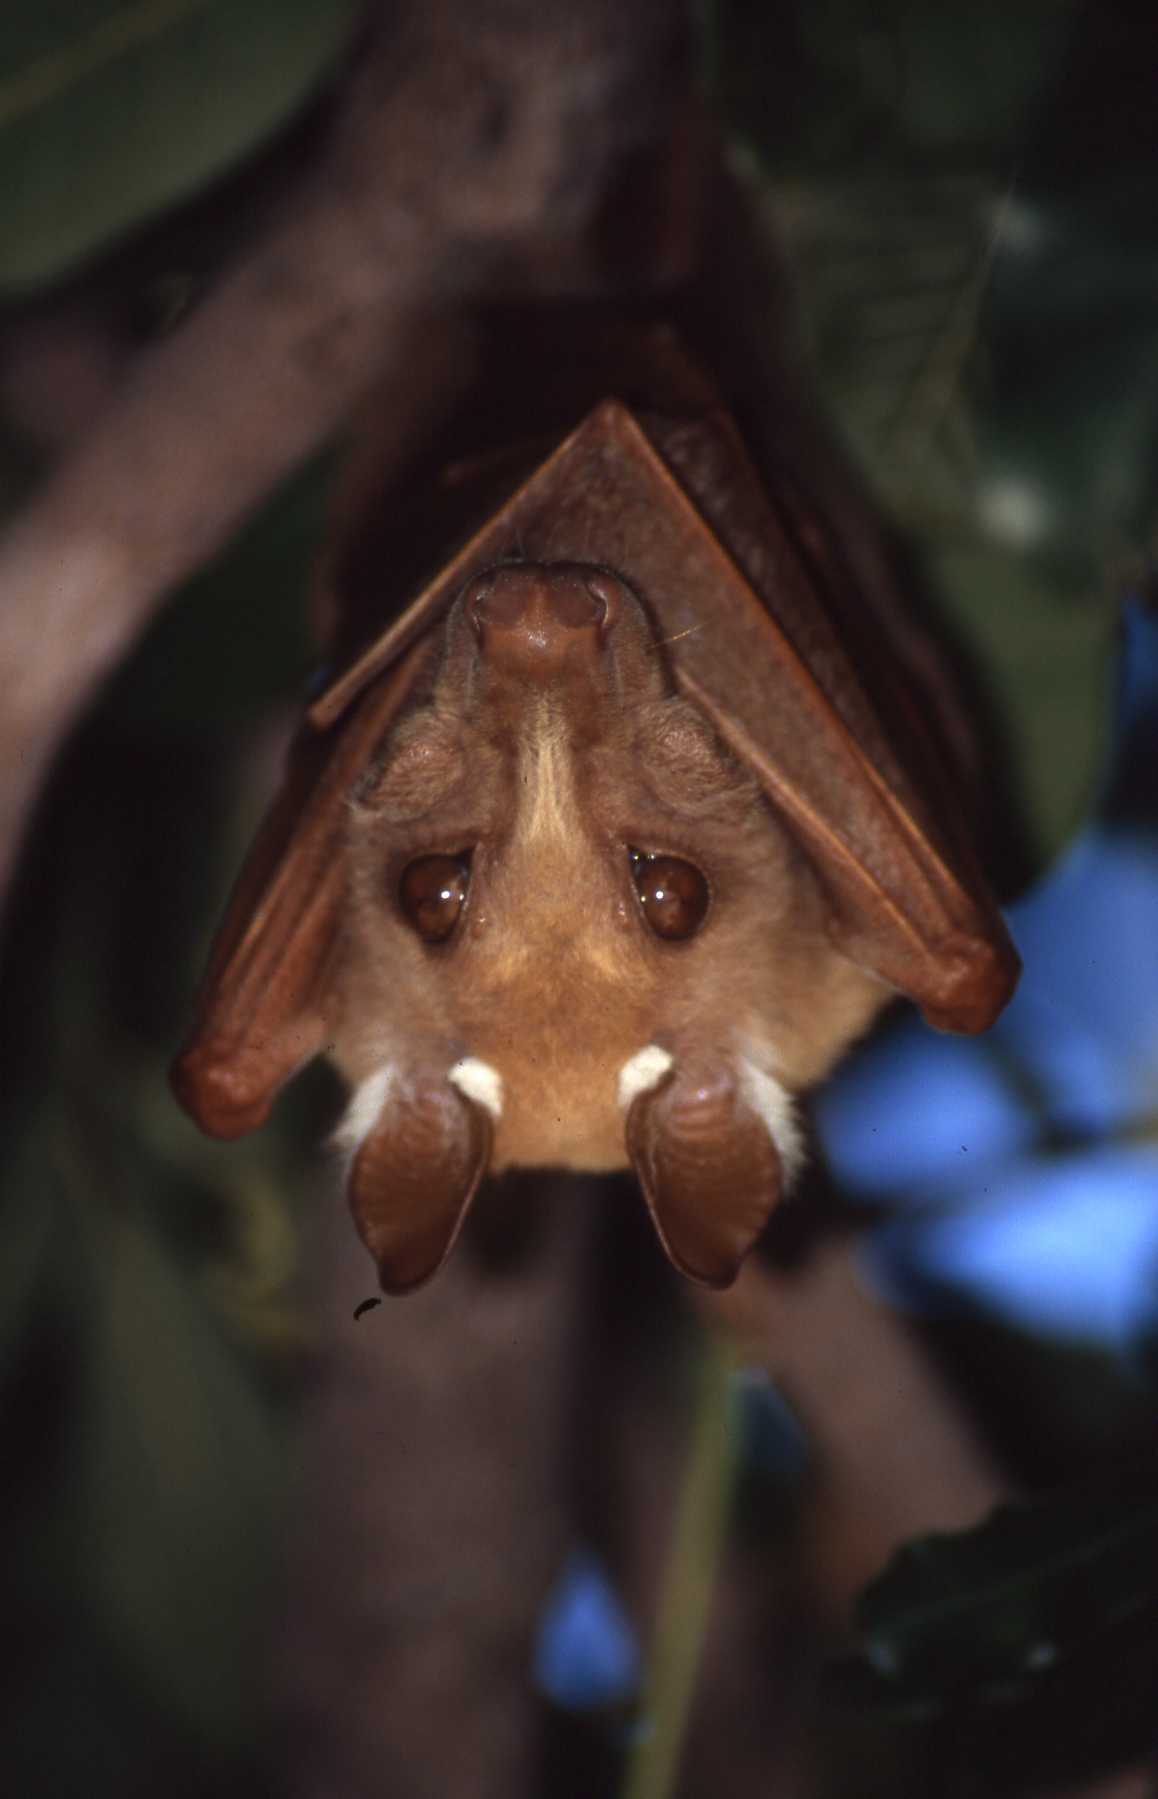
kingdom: Animalia
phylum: Chordata
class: Mammalia
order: Chiroptera
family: Pteropodidae
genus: Epomophorus
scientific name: Epomophorus crypturus
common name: Smaller epauletted fruit bat
